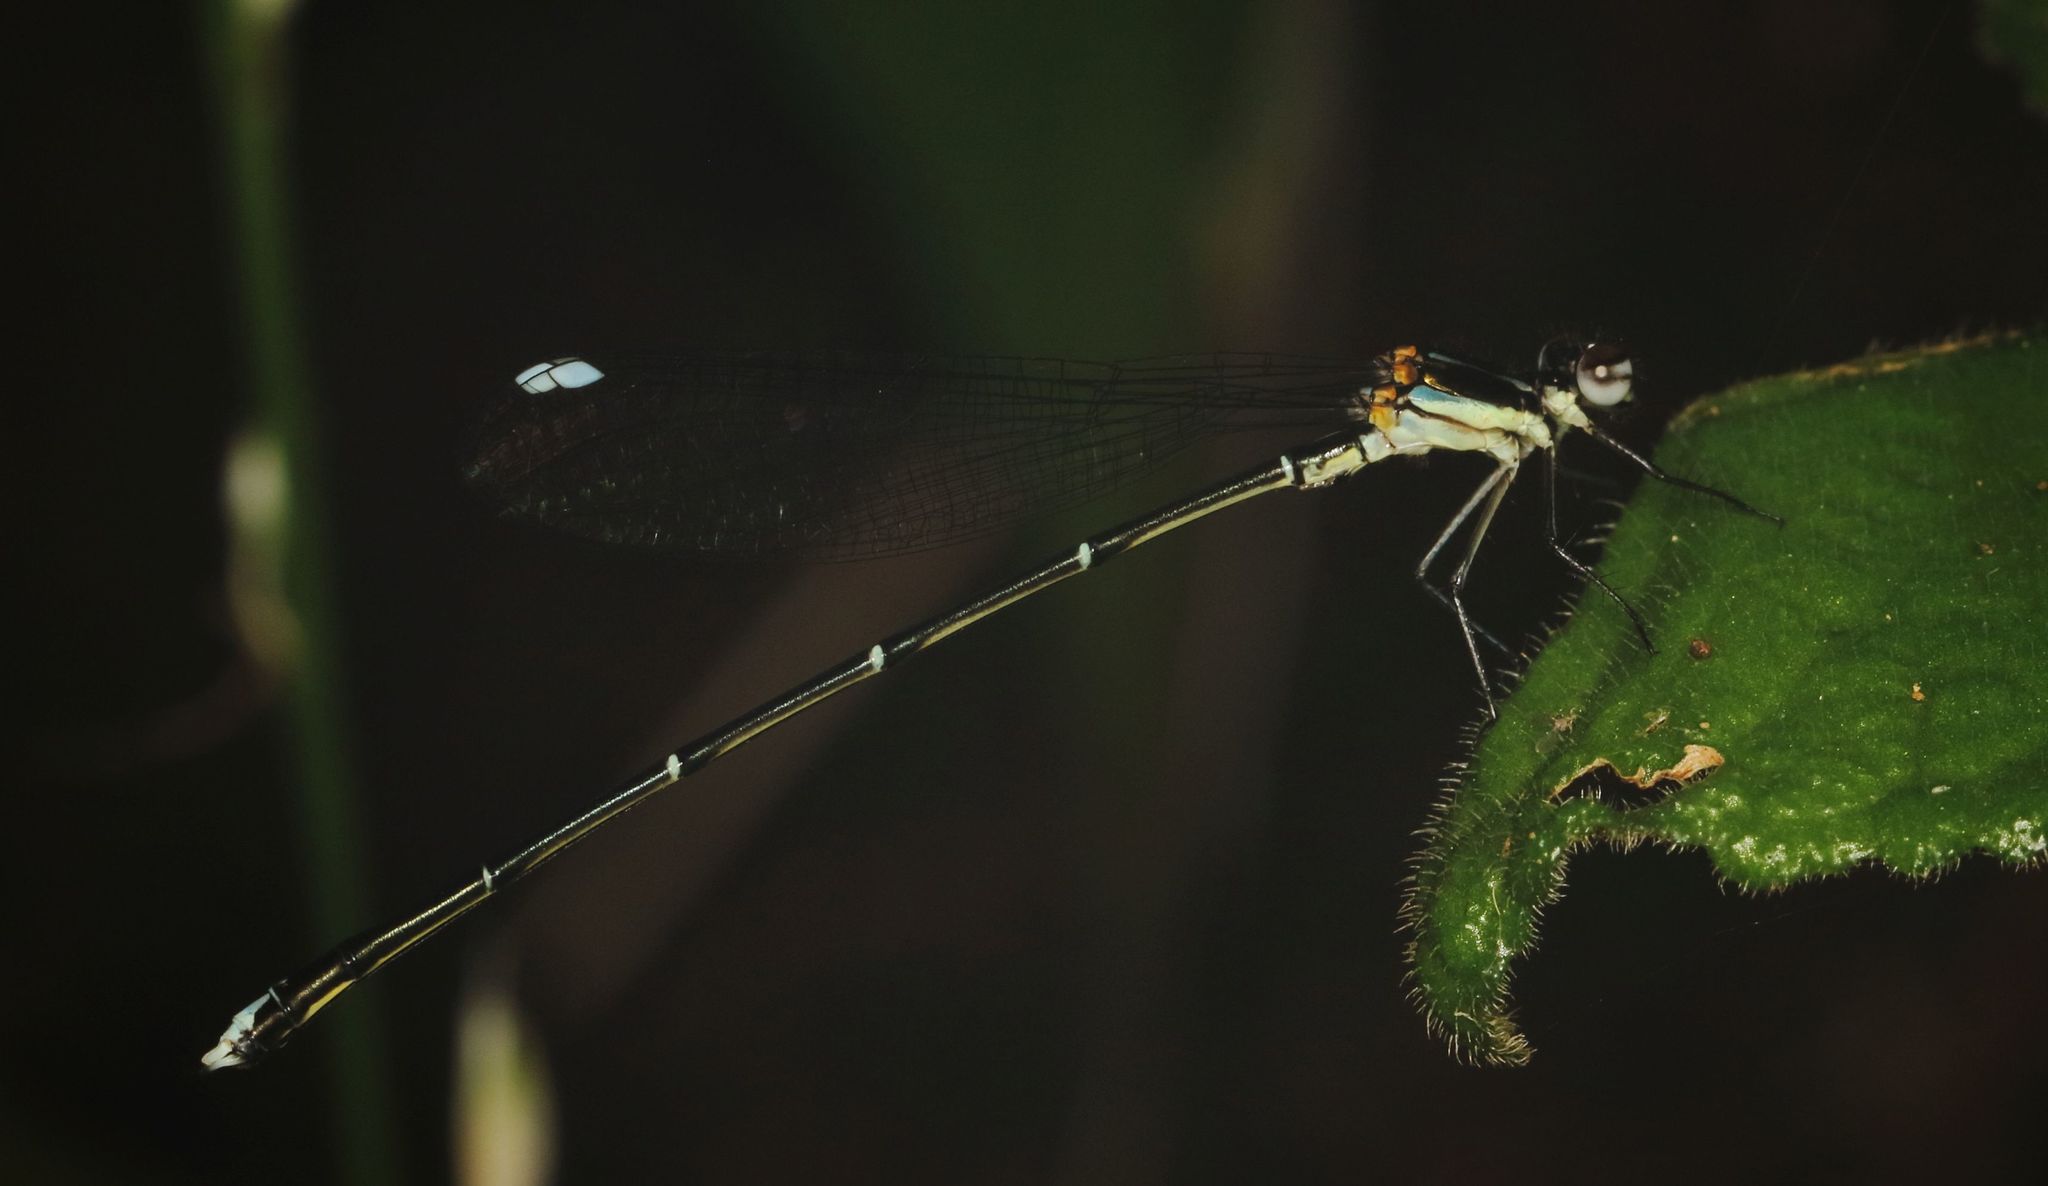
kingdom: Animalia
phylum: Arthropoda
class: Insecta
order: Odonata
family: Platycnemididae
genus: Allocnemis
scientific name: Allocnemis leucosticta
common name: Goldtail
